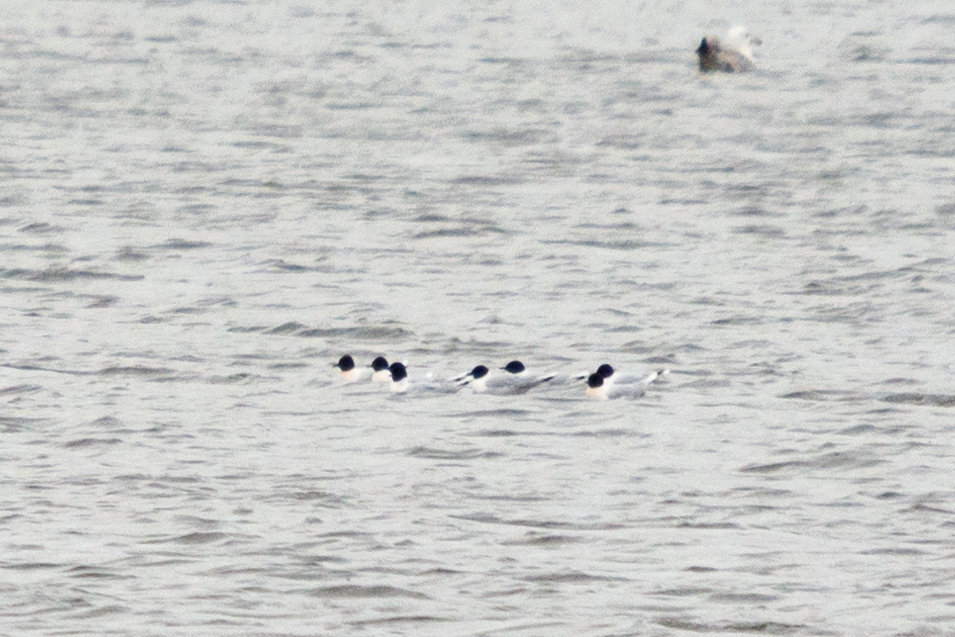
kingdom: Animalia
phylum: Chordata
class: Aves
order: Charadriiformes
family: Laridae
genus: Hydrocoloeus
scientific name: Hydrocoloeus minutus
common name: Little gull
